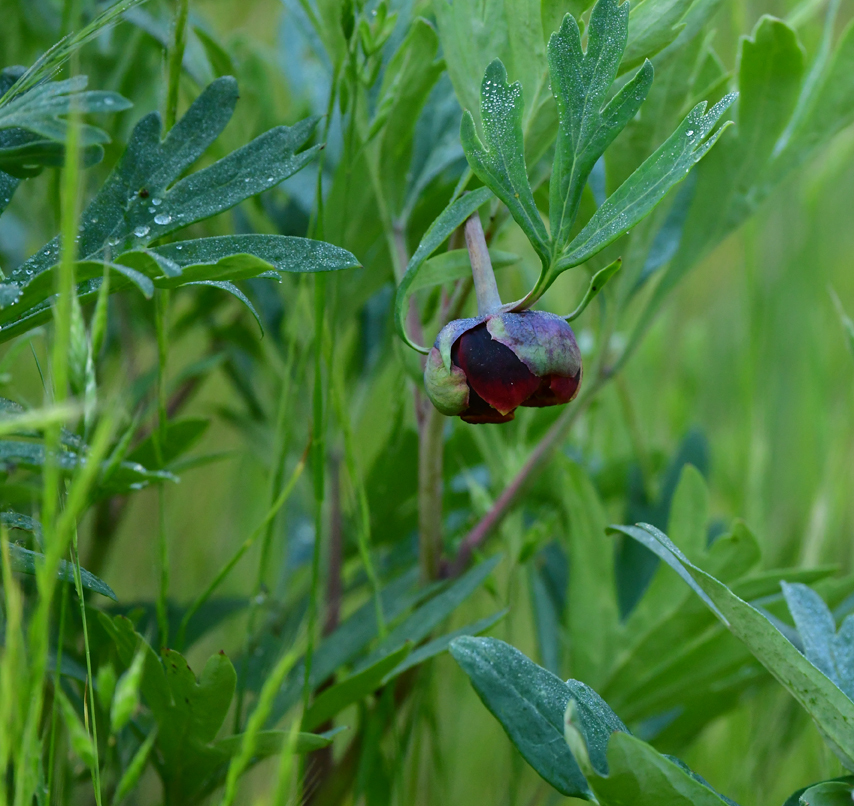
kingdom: Plantae
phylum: Tracheophyta
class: Magnoliopsida
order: Saxifragales
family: Paeoniaceae
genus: Paeonia
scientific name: Paeonia californica
